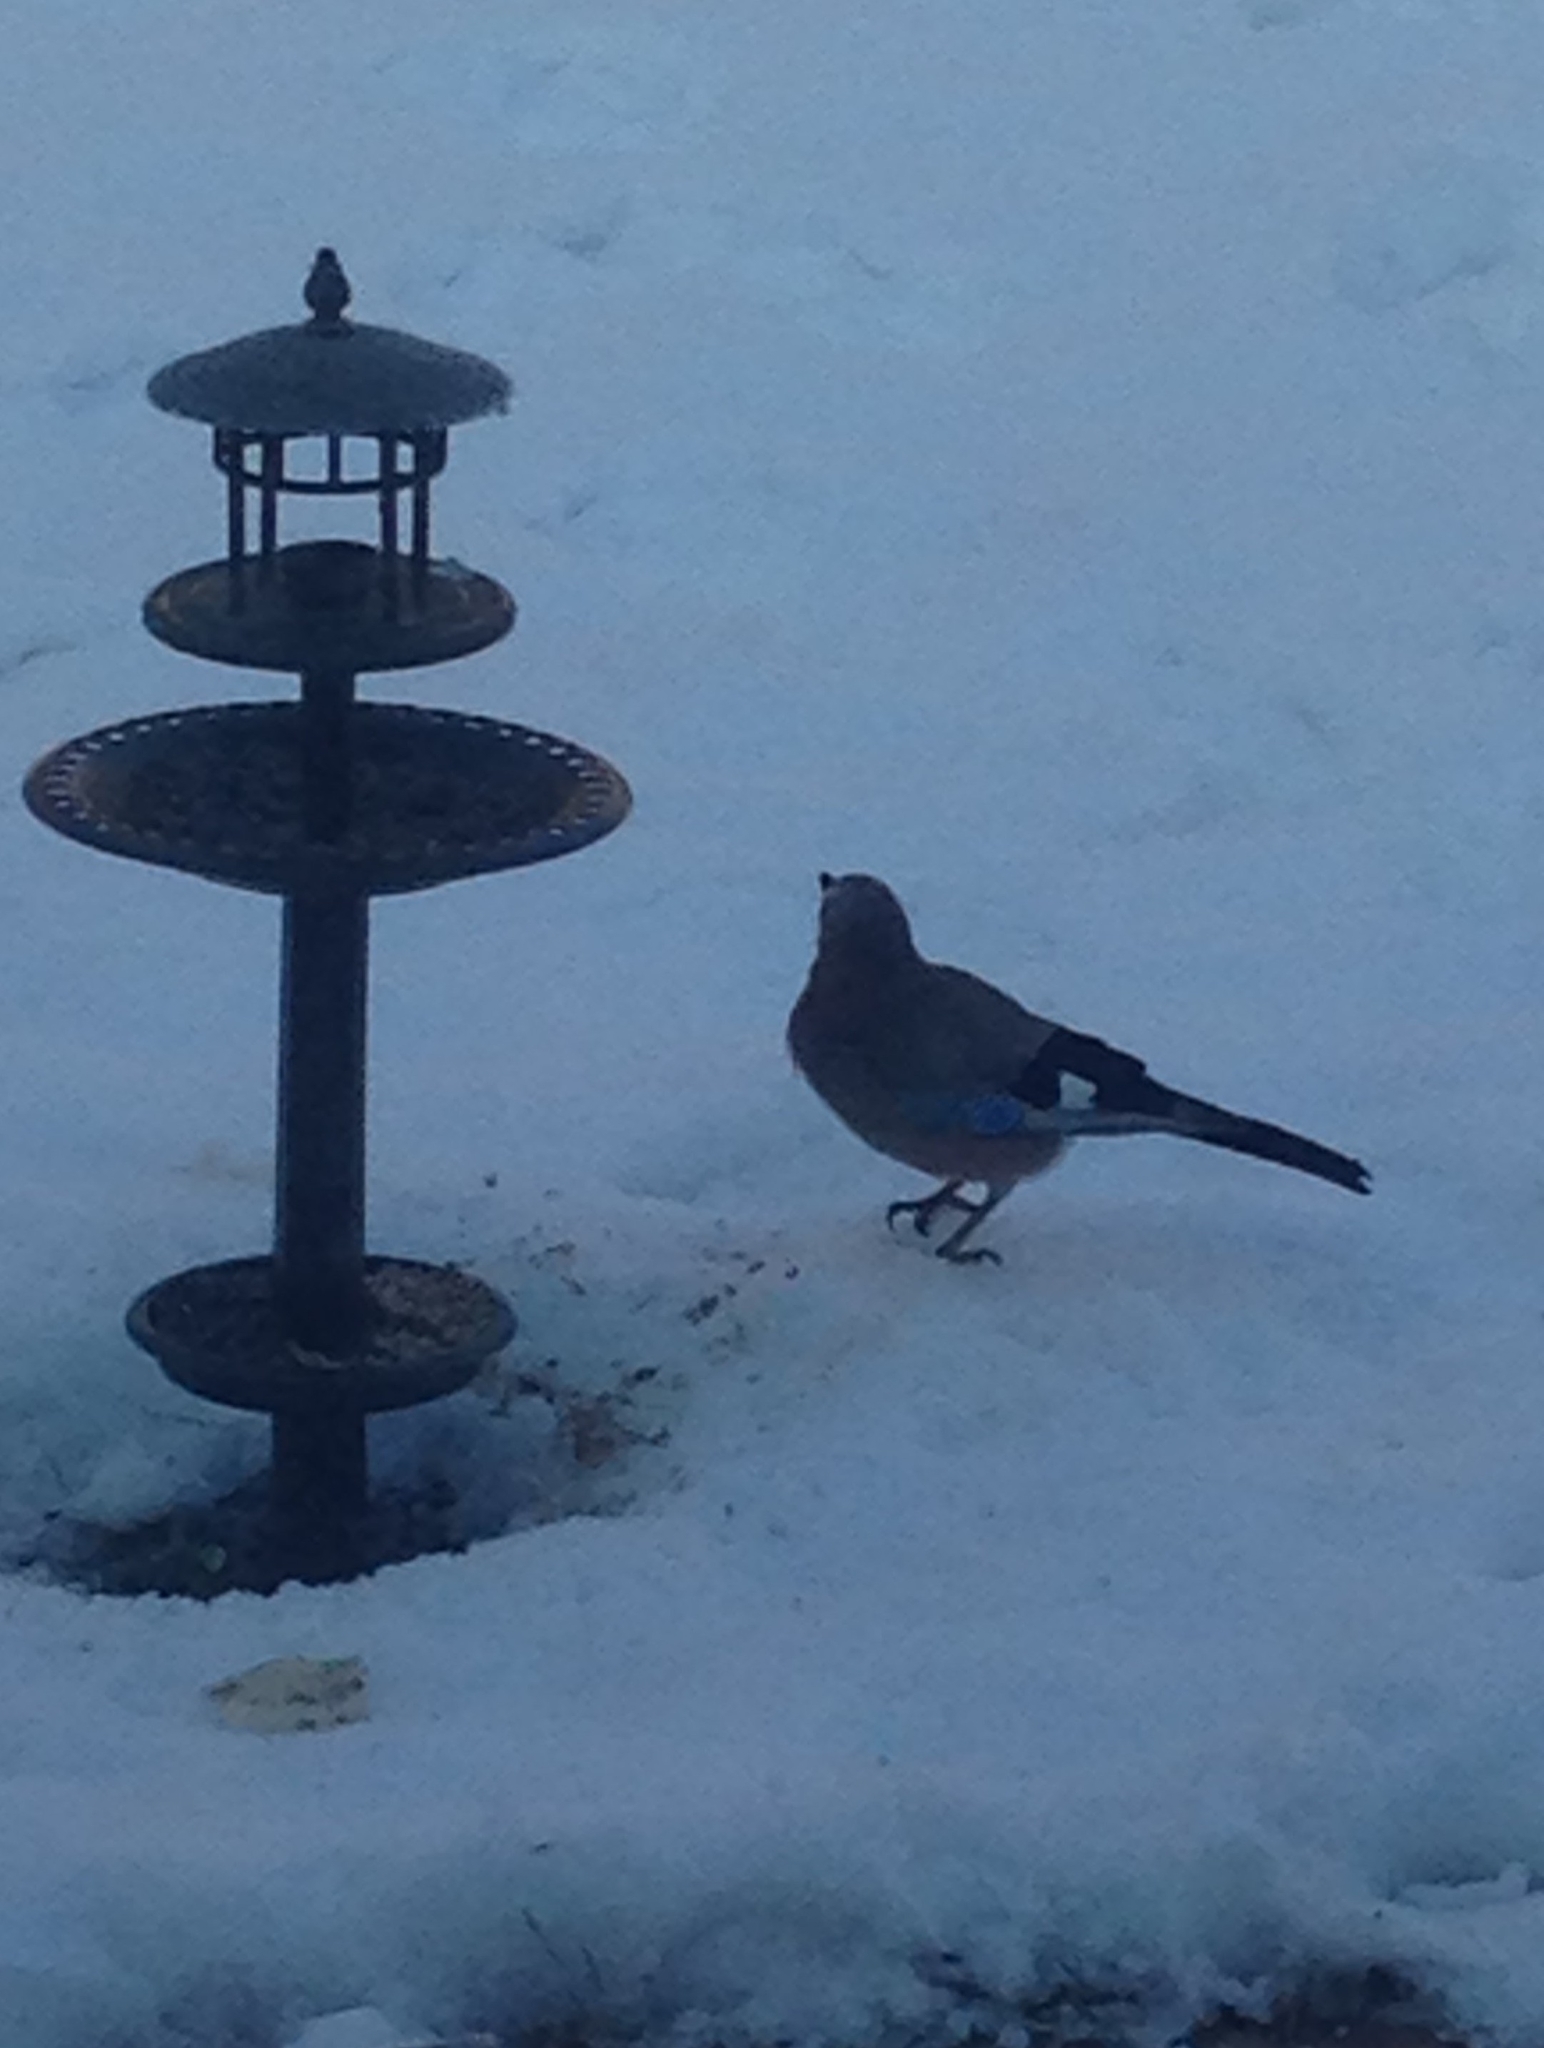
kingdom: Animalia
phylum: Chordata
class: Aves
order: Passeriformes
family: Corvidae
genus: Garrulus
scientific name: Garrulus glandarius
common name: Eurasian jay
